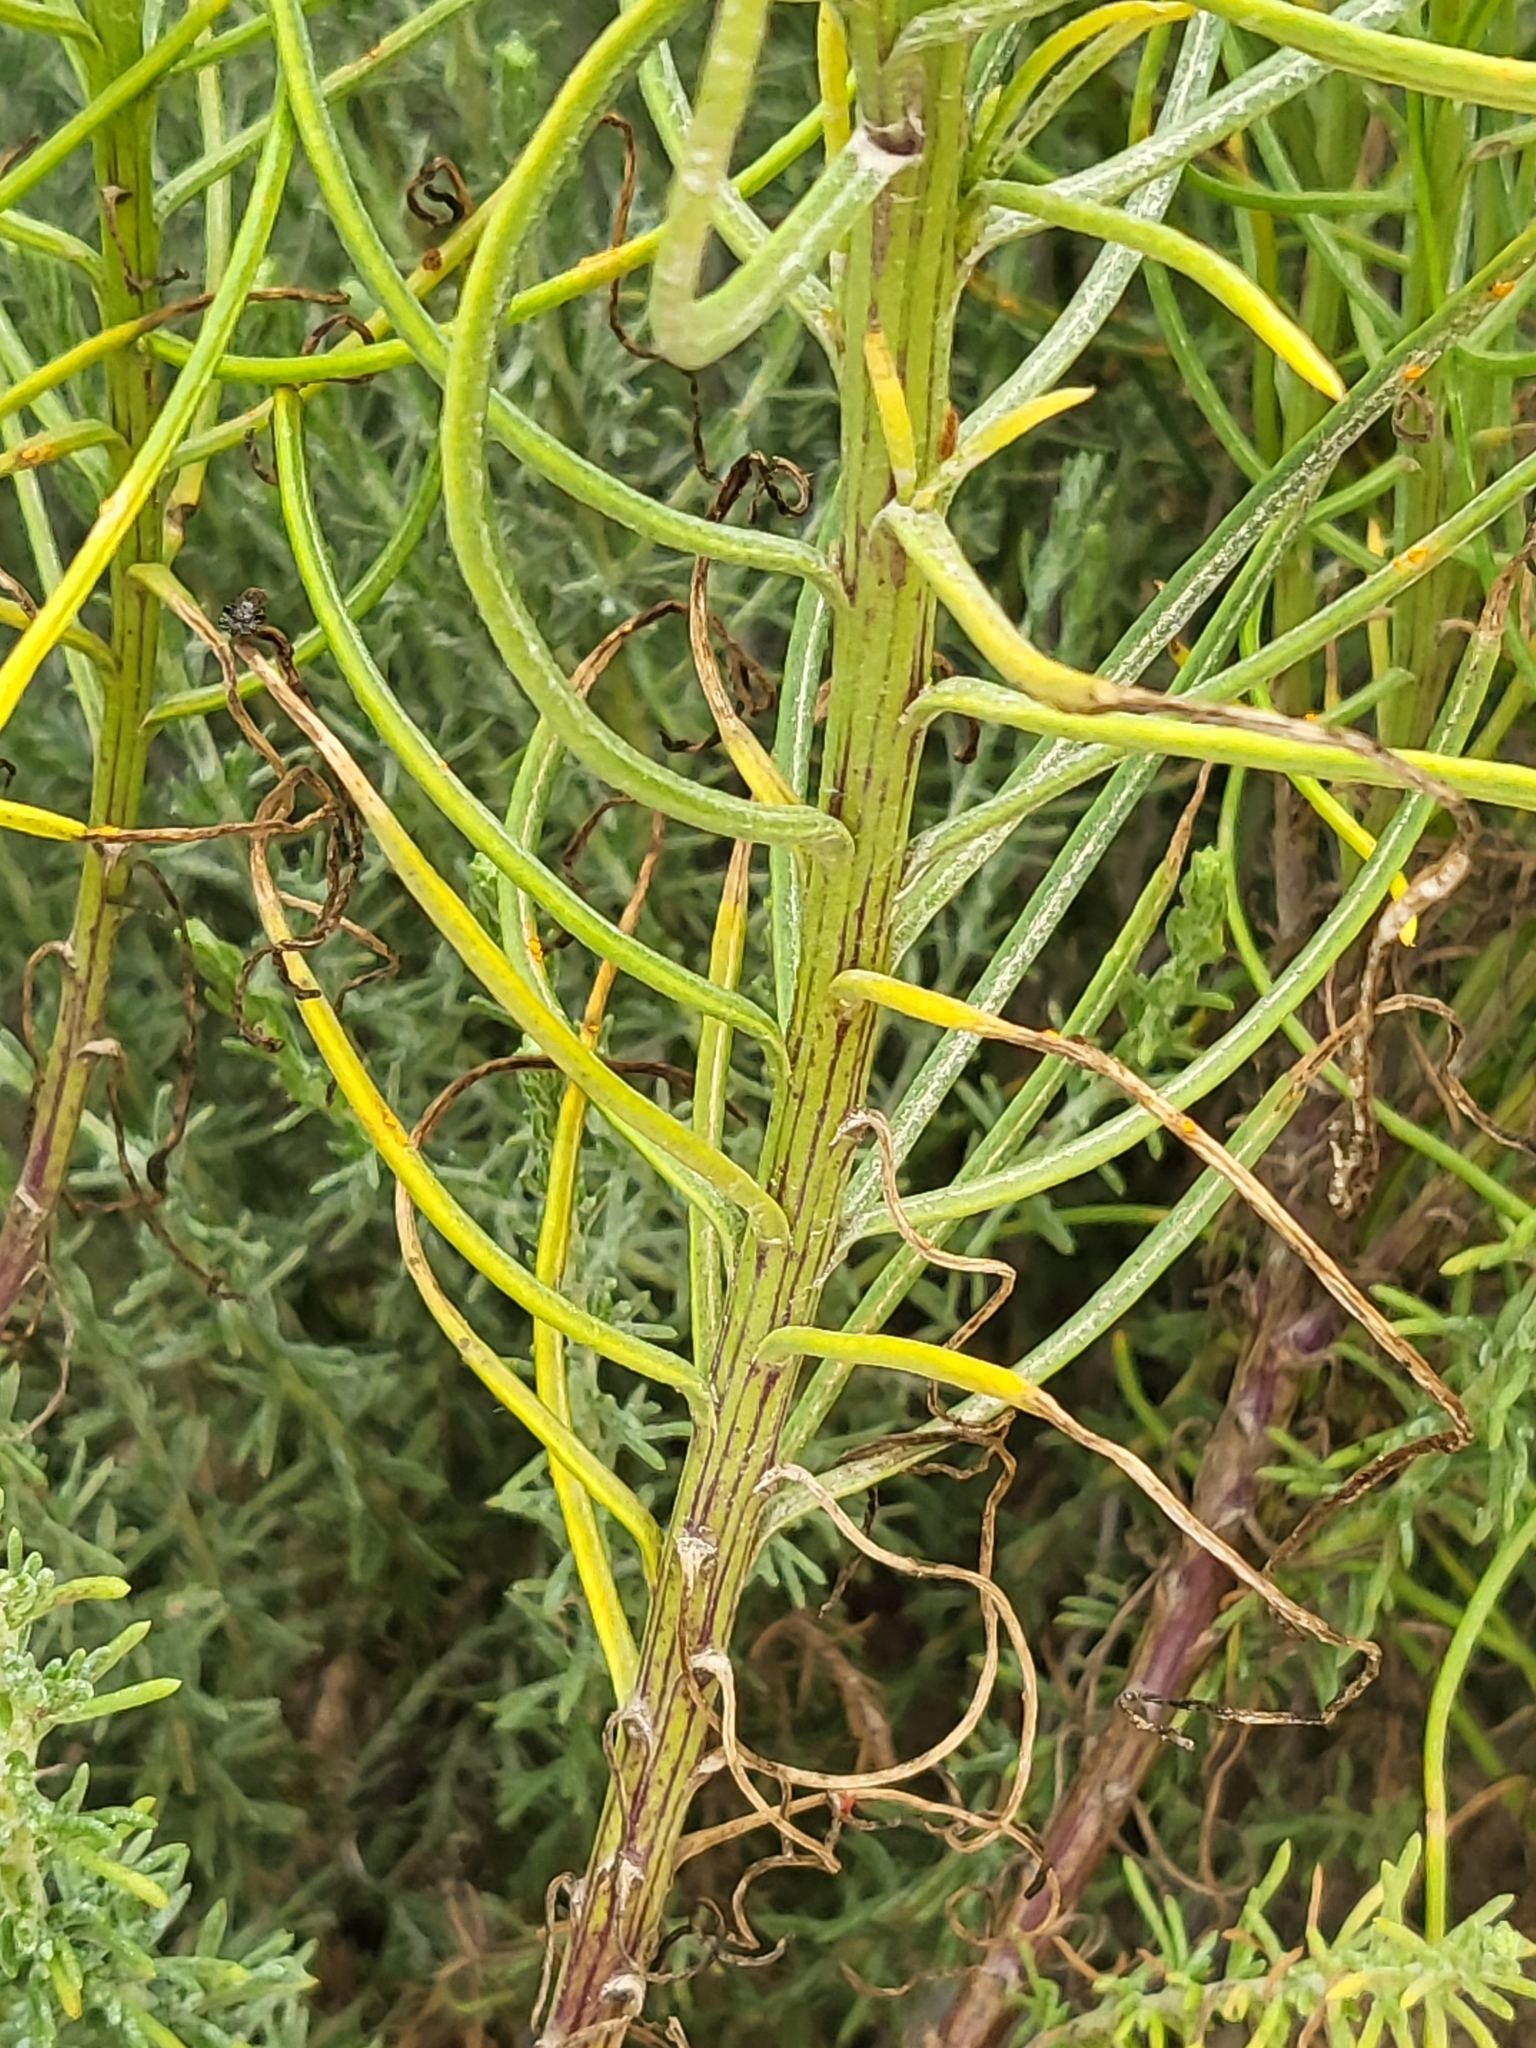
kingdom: Plantae
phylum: Tracheophyta
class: Magnoliopsida
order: Asterales
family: Asteraceae
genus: Senecio
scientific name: Senecio blochmaniae
